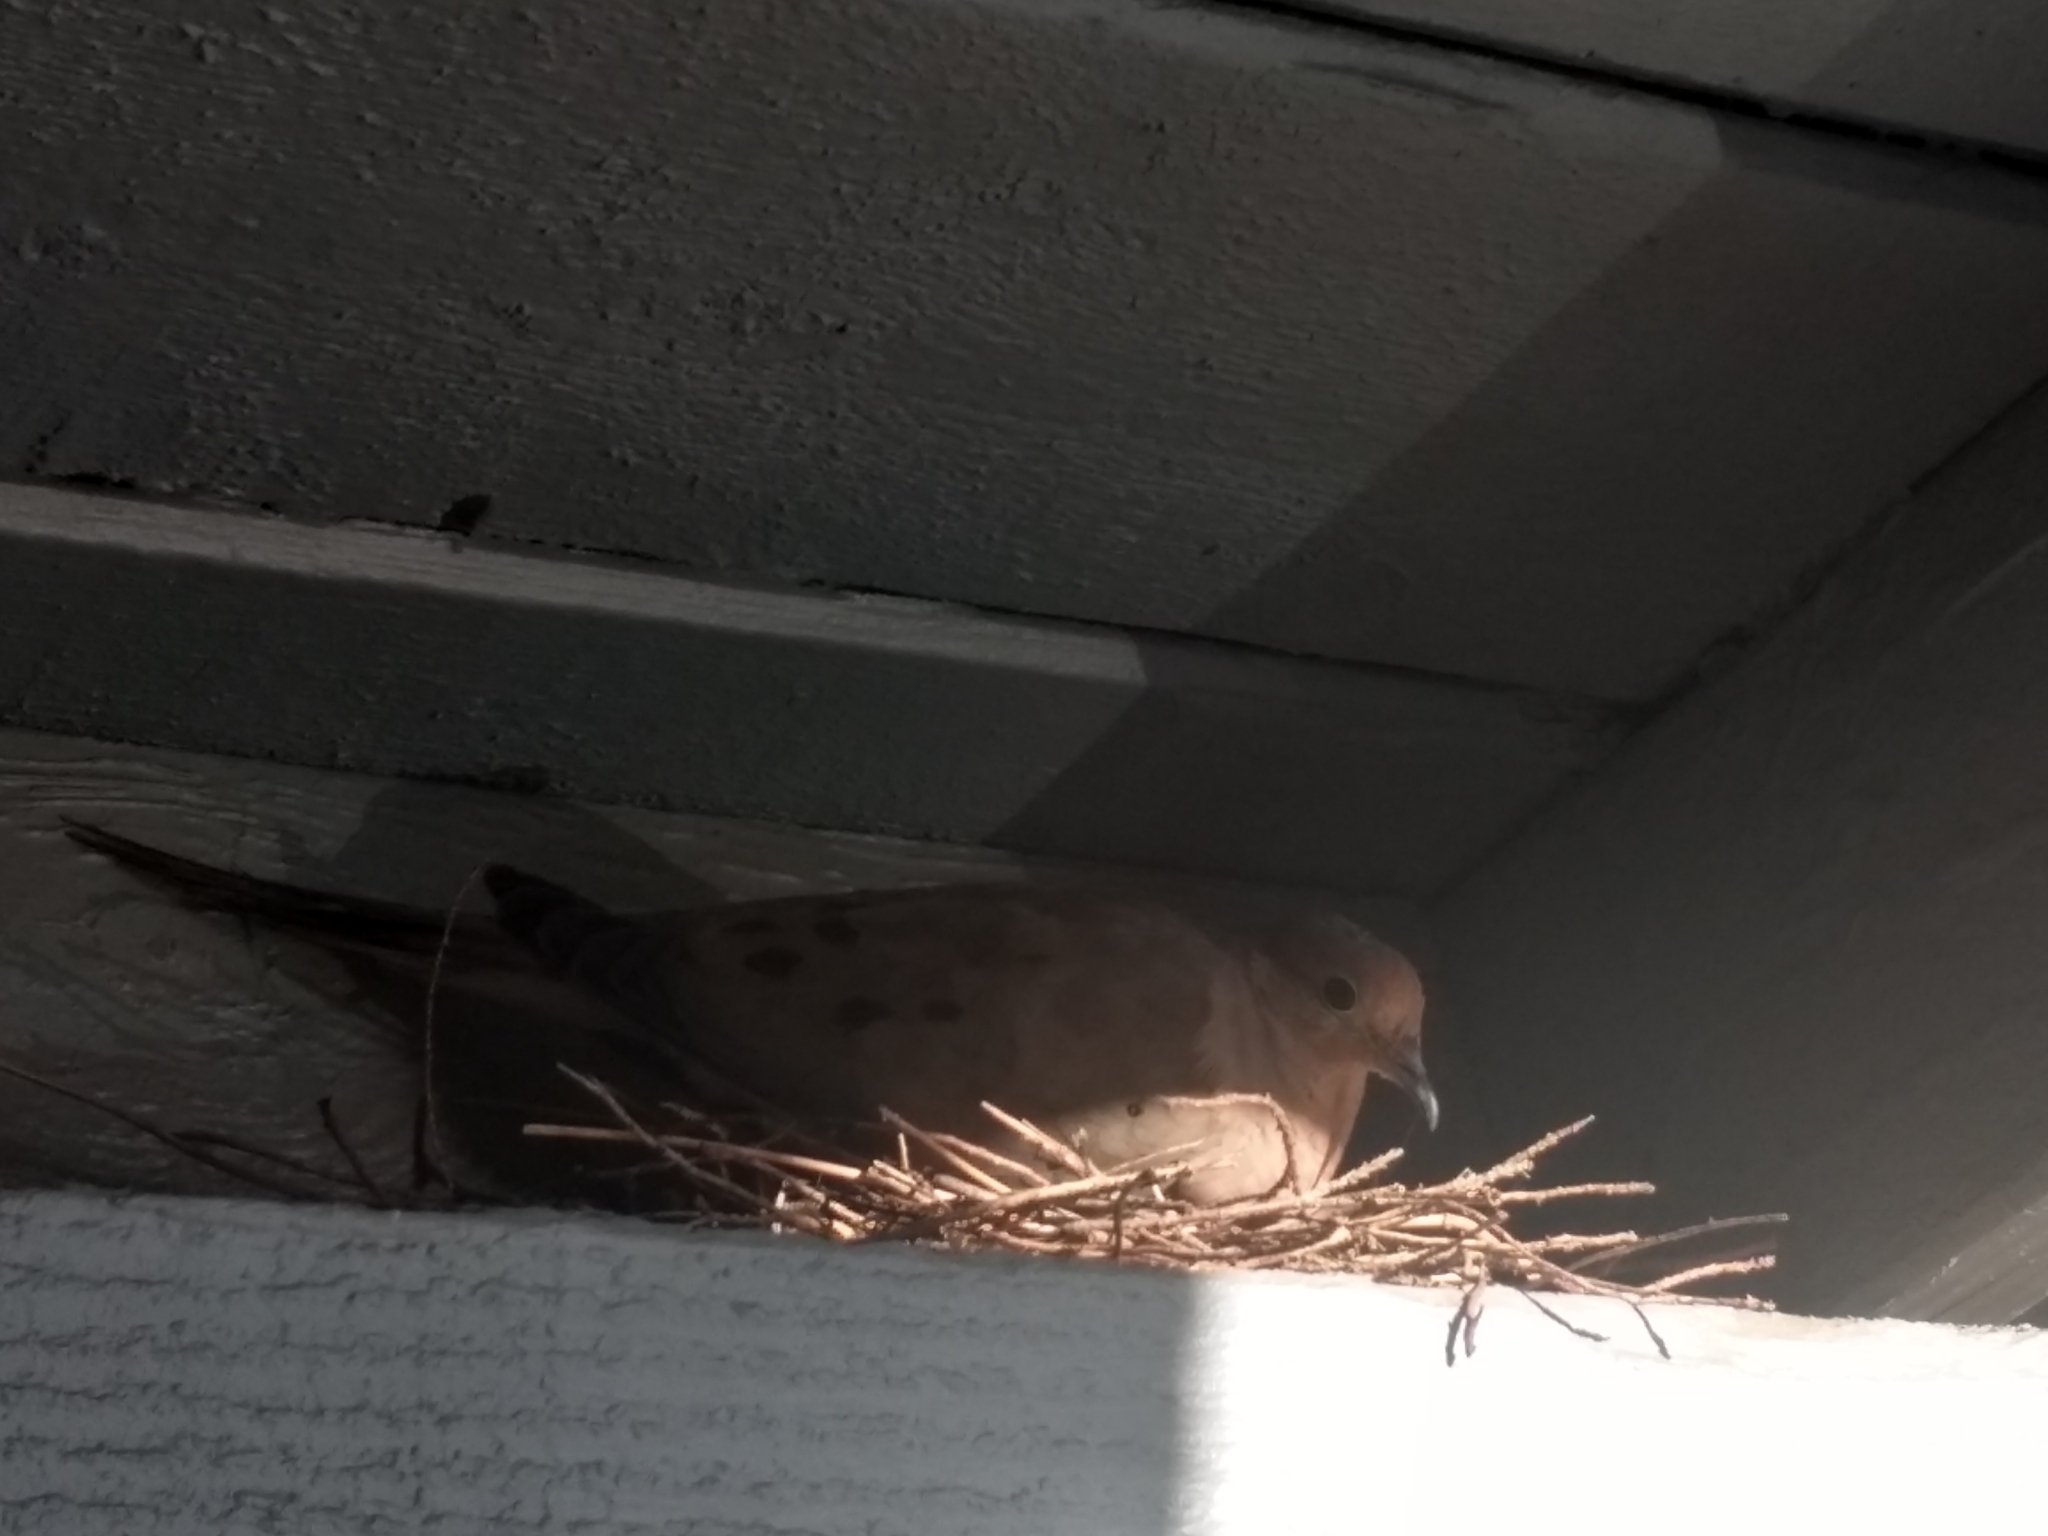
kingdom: Animalia
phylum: Chordata
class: Aves
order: Columbiformes
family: Columbidae
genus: Zenaida
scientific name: Zenaida macroura
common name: Mourning dove
